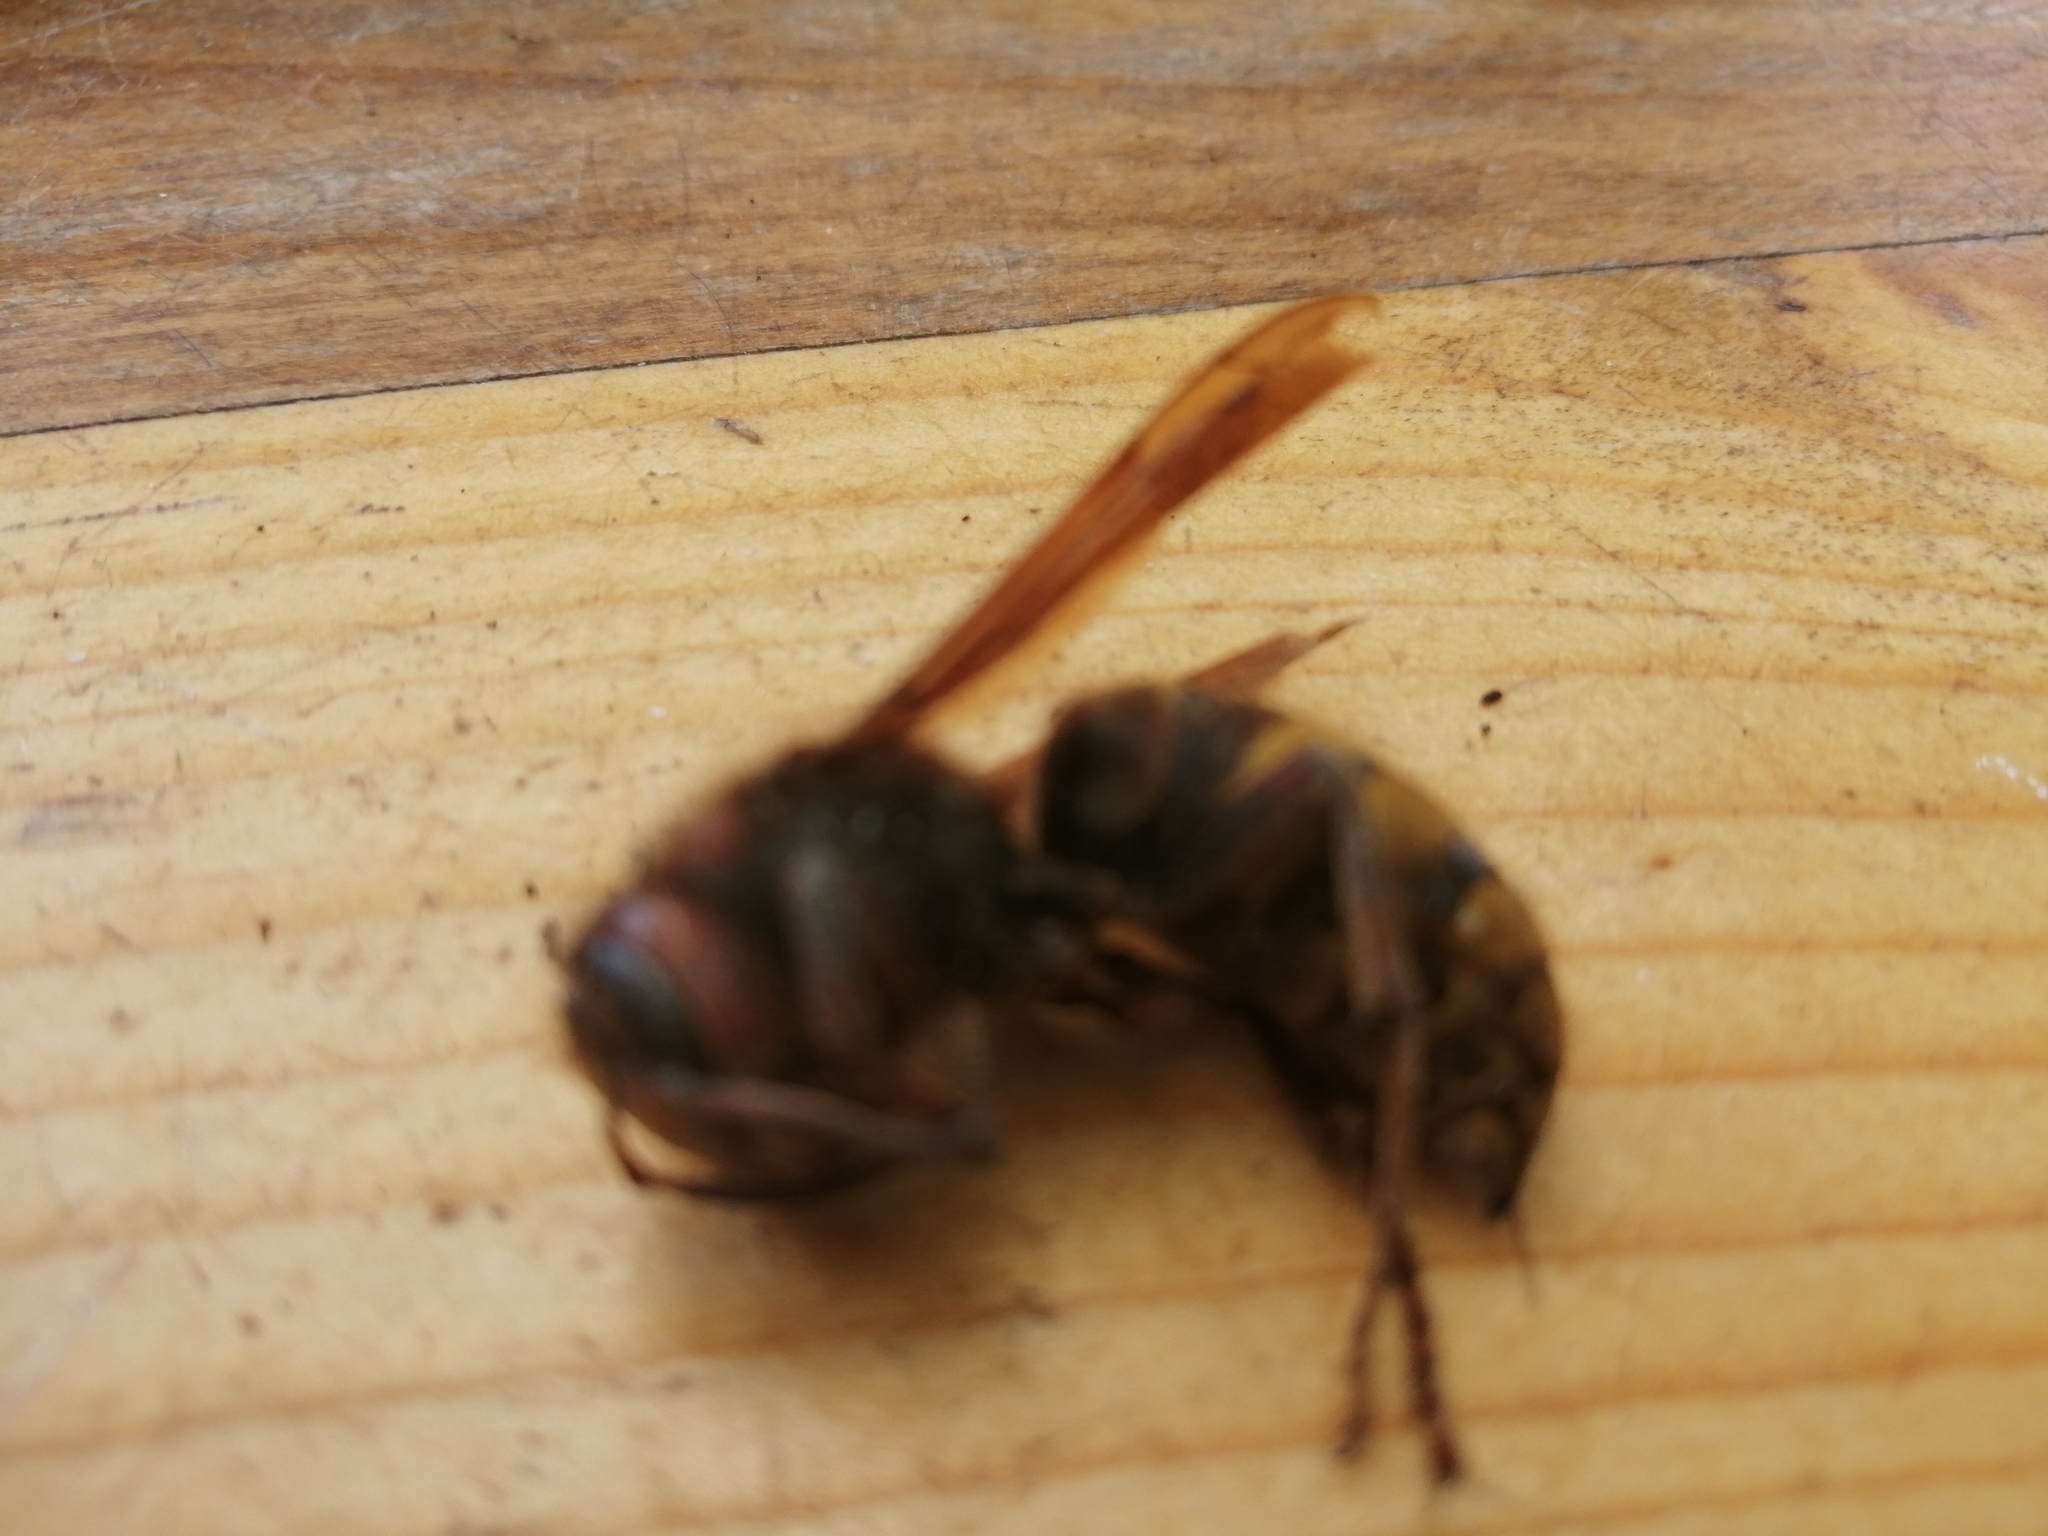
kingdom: Animalia
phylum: Arthropoda
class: Insecta
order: Hymenoptera
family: Vespidae
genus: Vespa
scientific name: Vespa crabro
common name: Hornet
